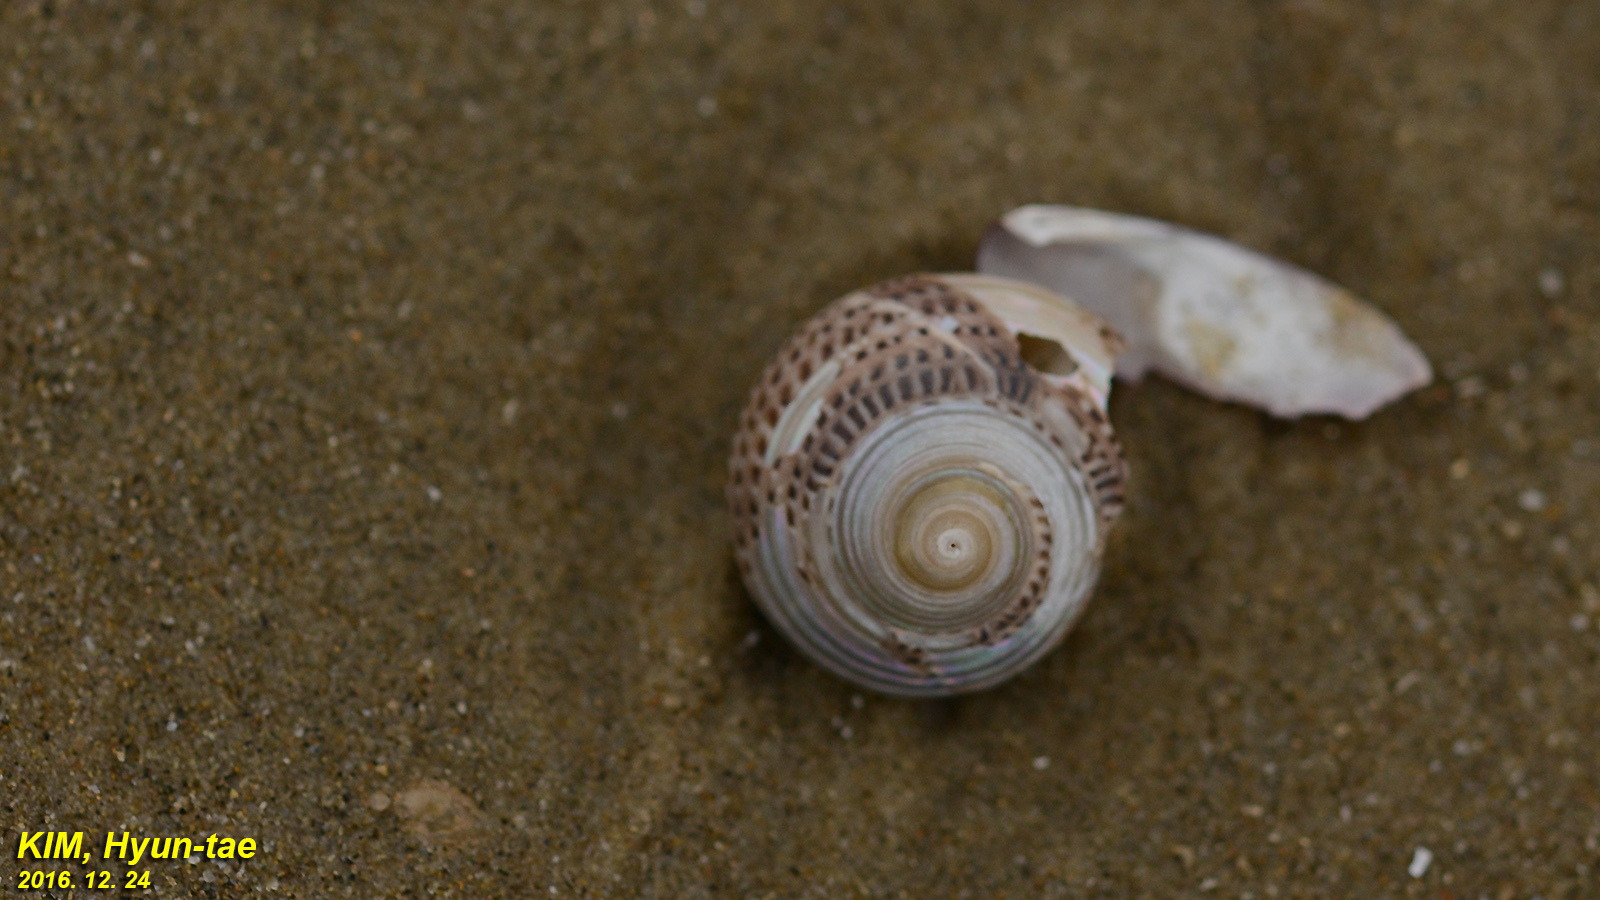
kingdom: Animalia
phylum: Mollusca
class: Gastropoda
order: Trochida
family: Trochidae
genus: Umbonium
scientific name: Umbonium costatum
